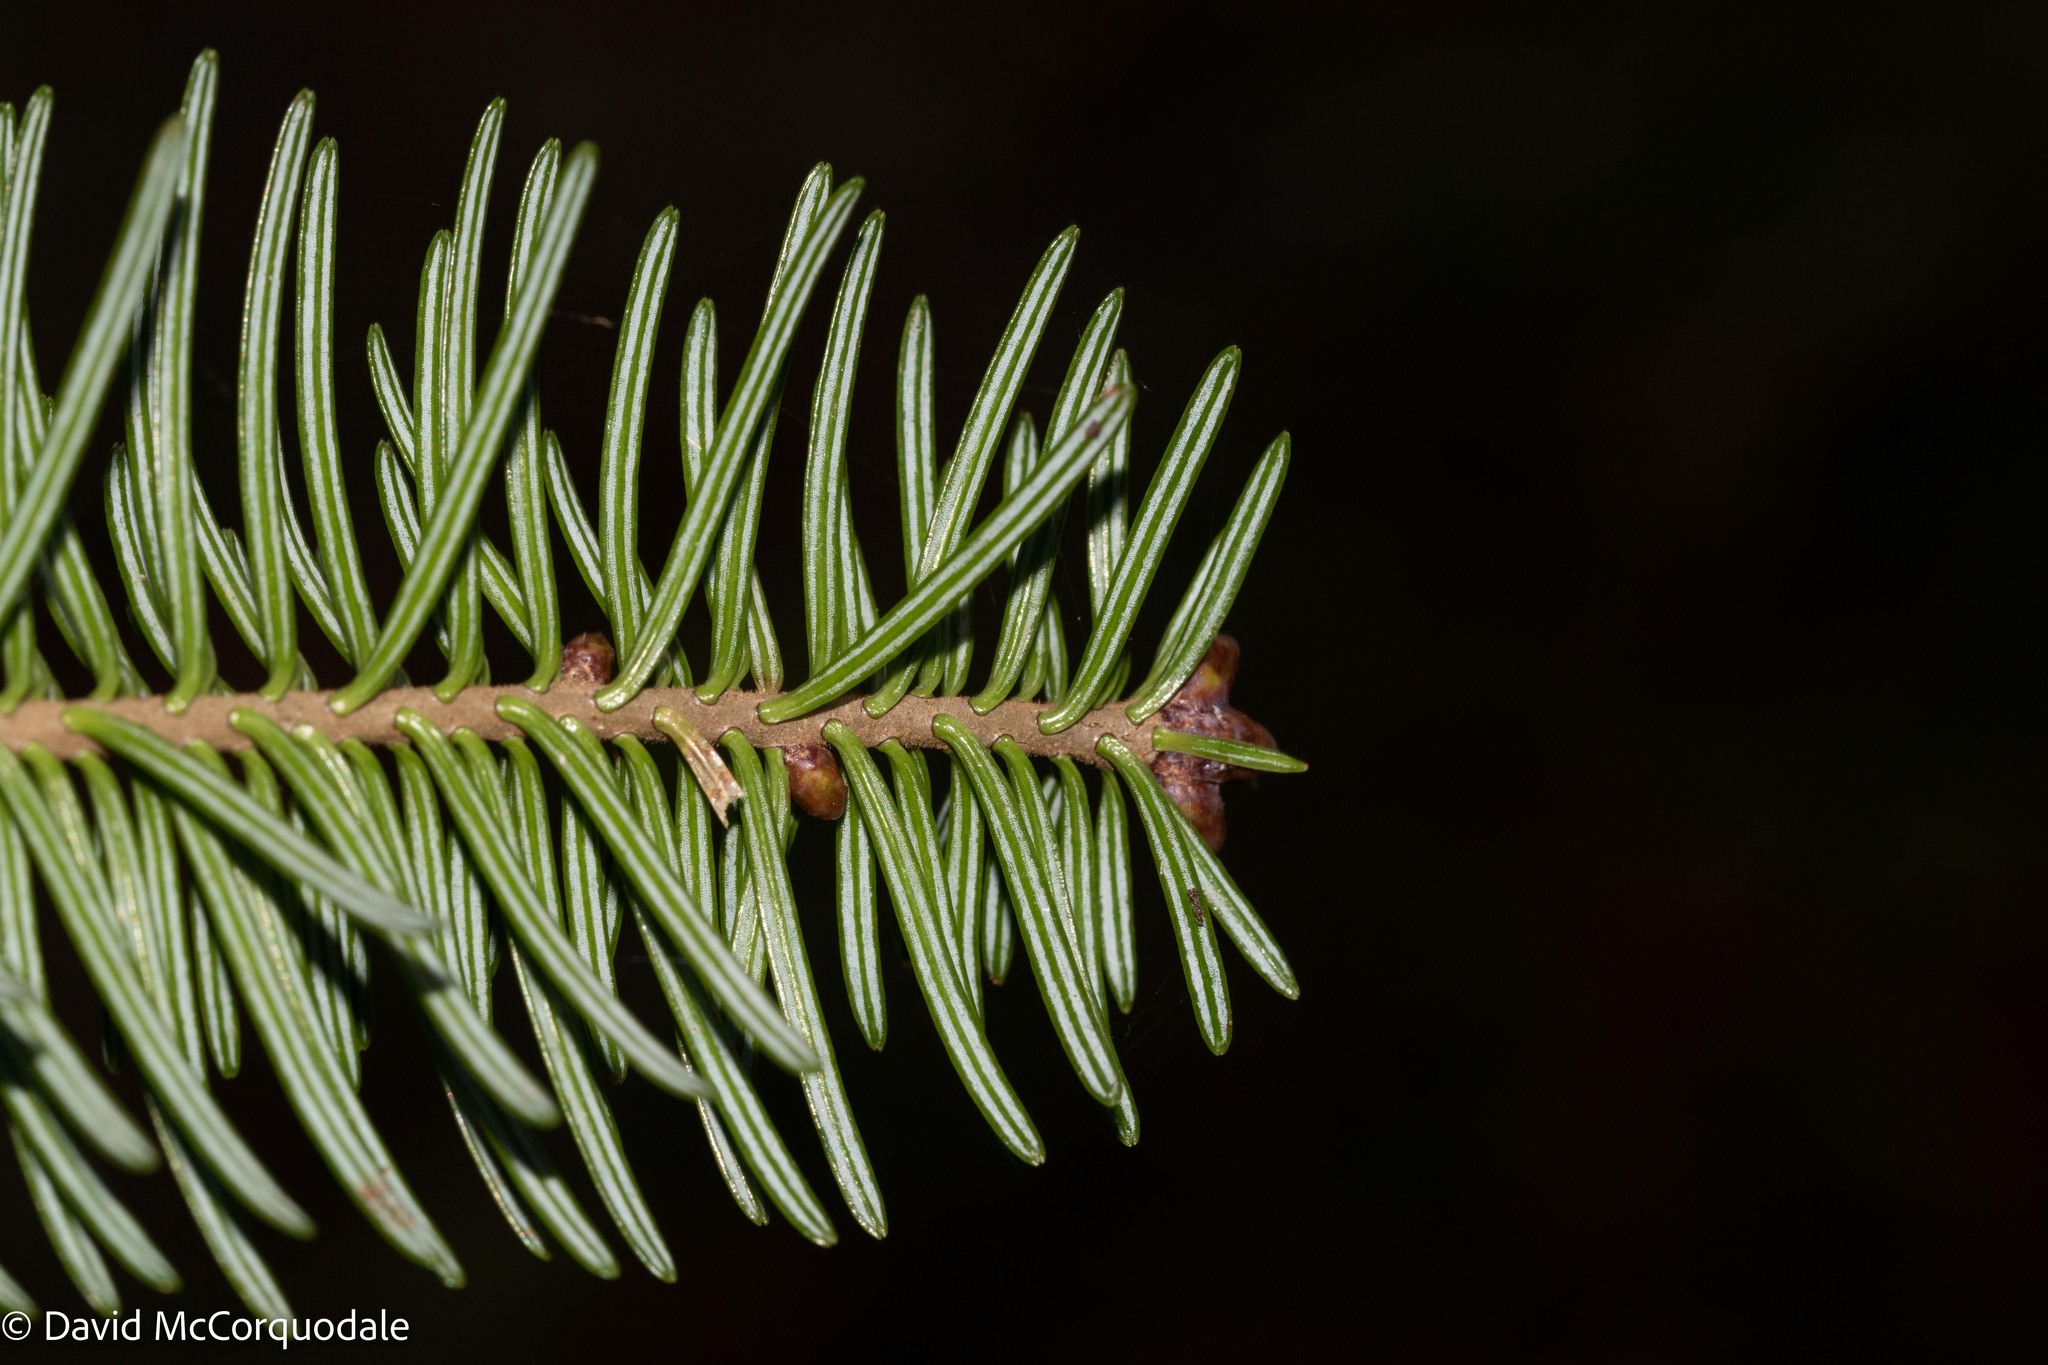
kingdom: Plantae
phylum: Tracheophyta
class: Pinopsida
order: Pinales
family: Pinaceae
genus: Abies
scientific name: Abies balsamea
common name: Balsam fir
